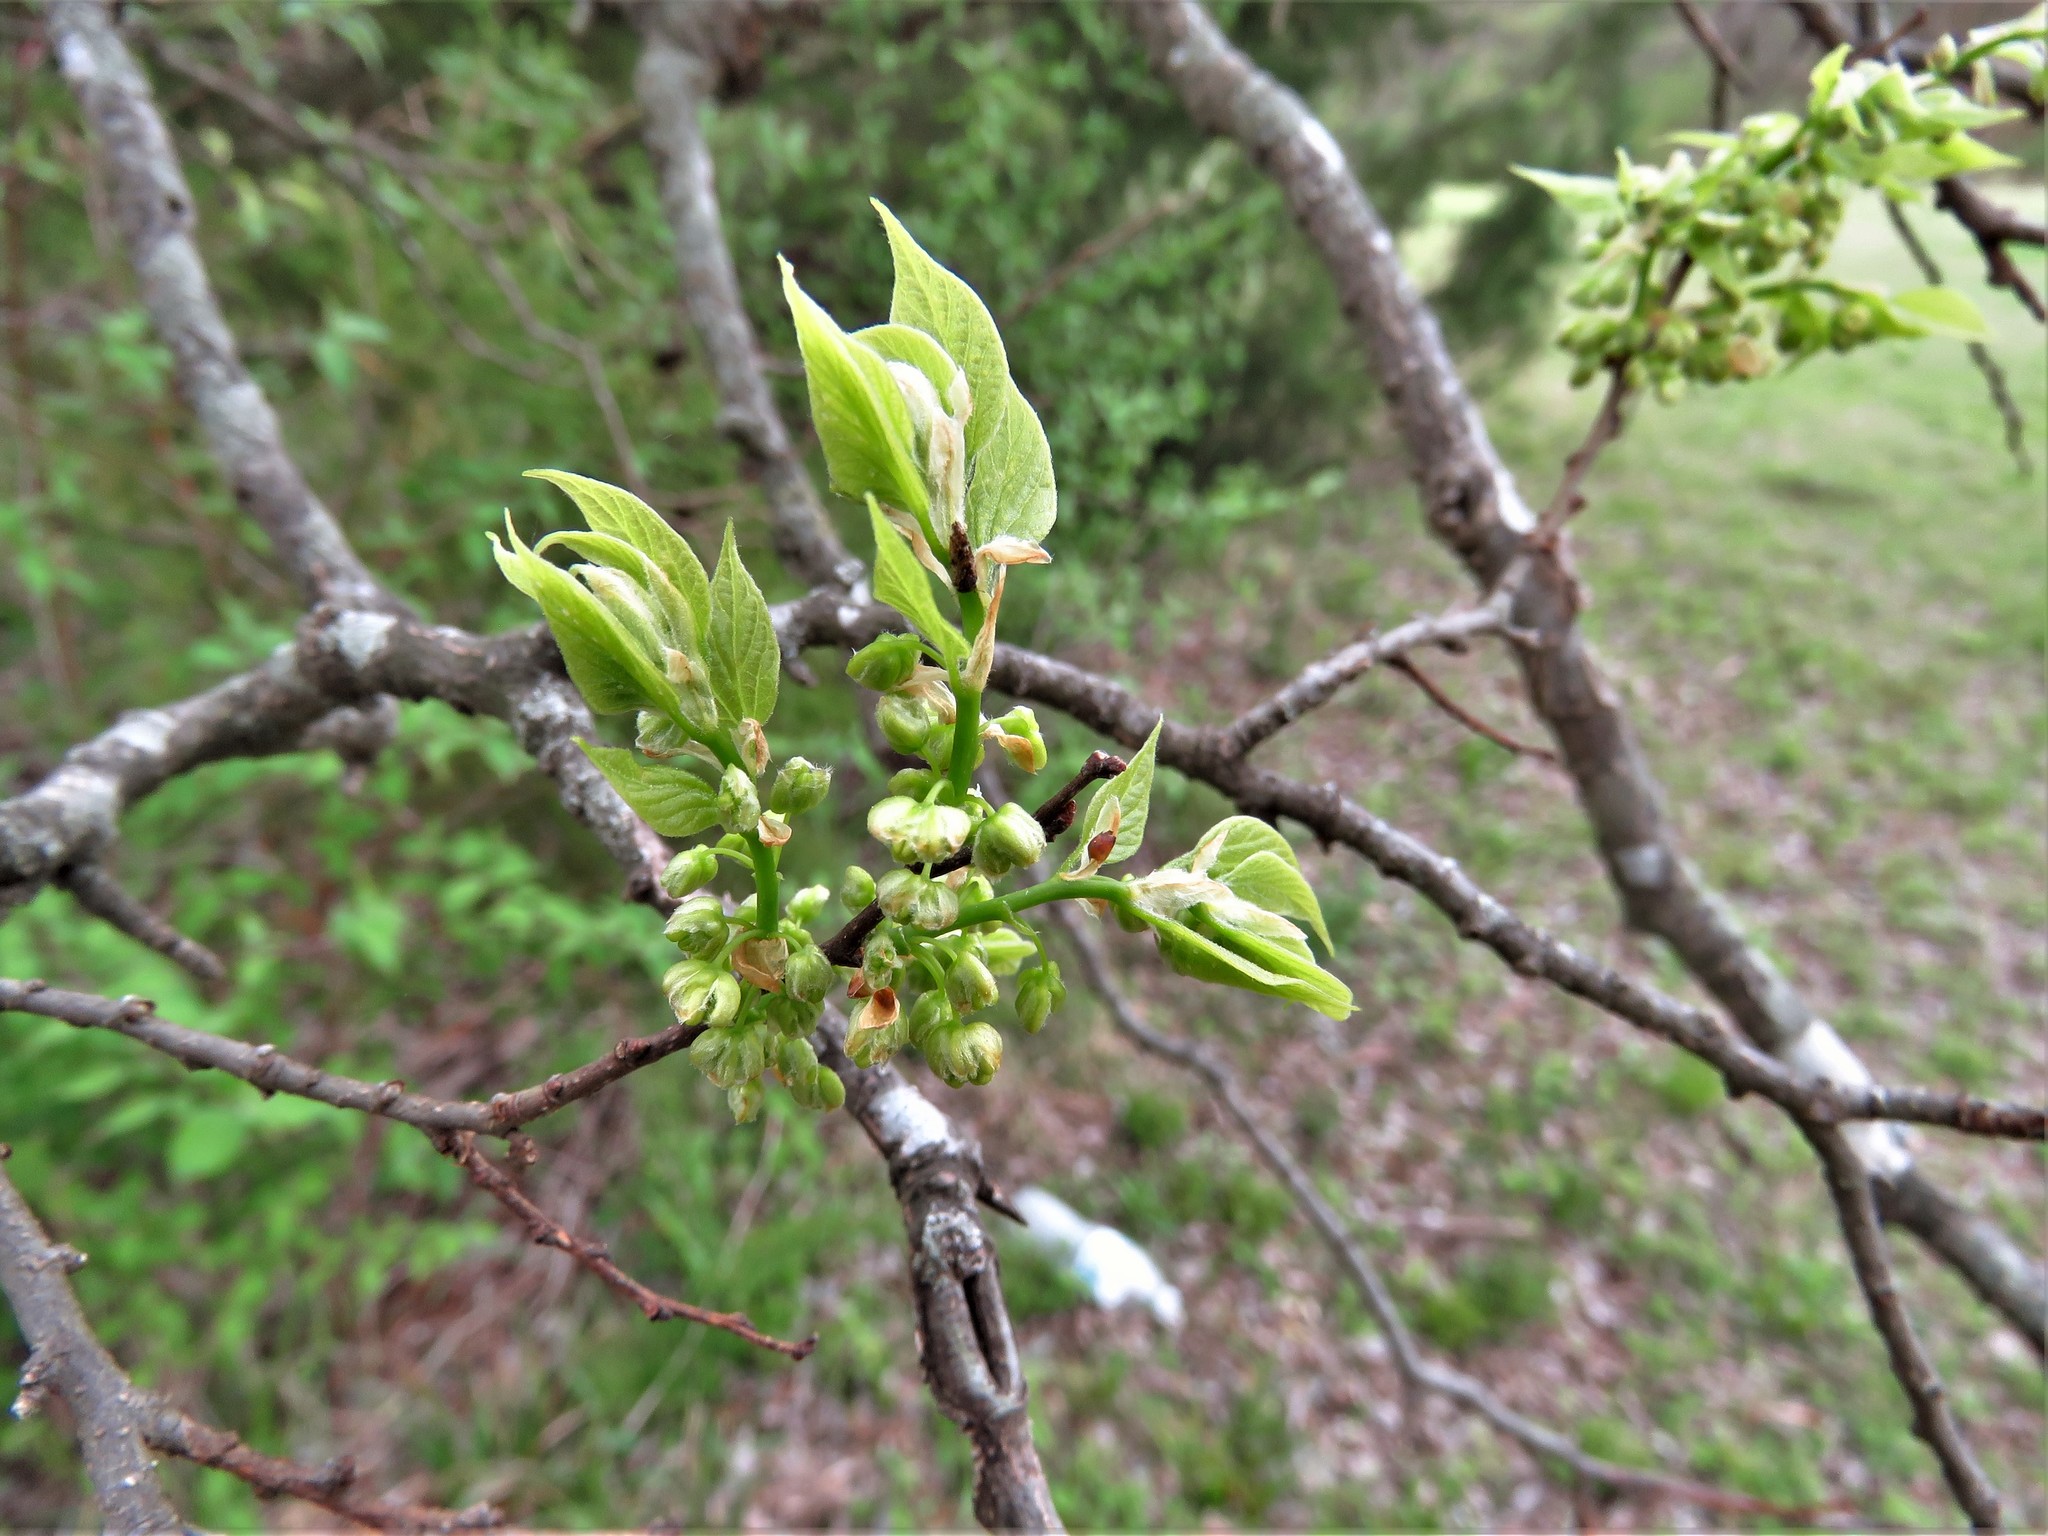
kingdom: Plantae
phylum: Tracheophyta
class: Magnoliopsida
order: Rosales
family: Cannabaceae
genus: Celtis
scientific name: Celtis laevigata
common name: Sugarberry
